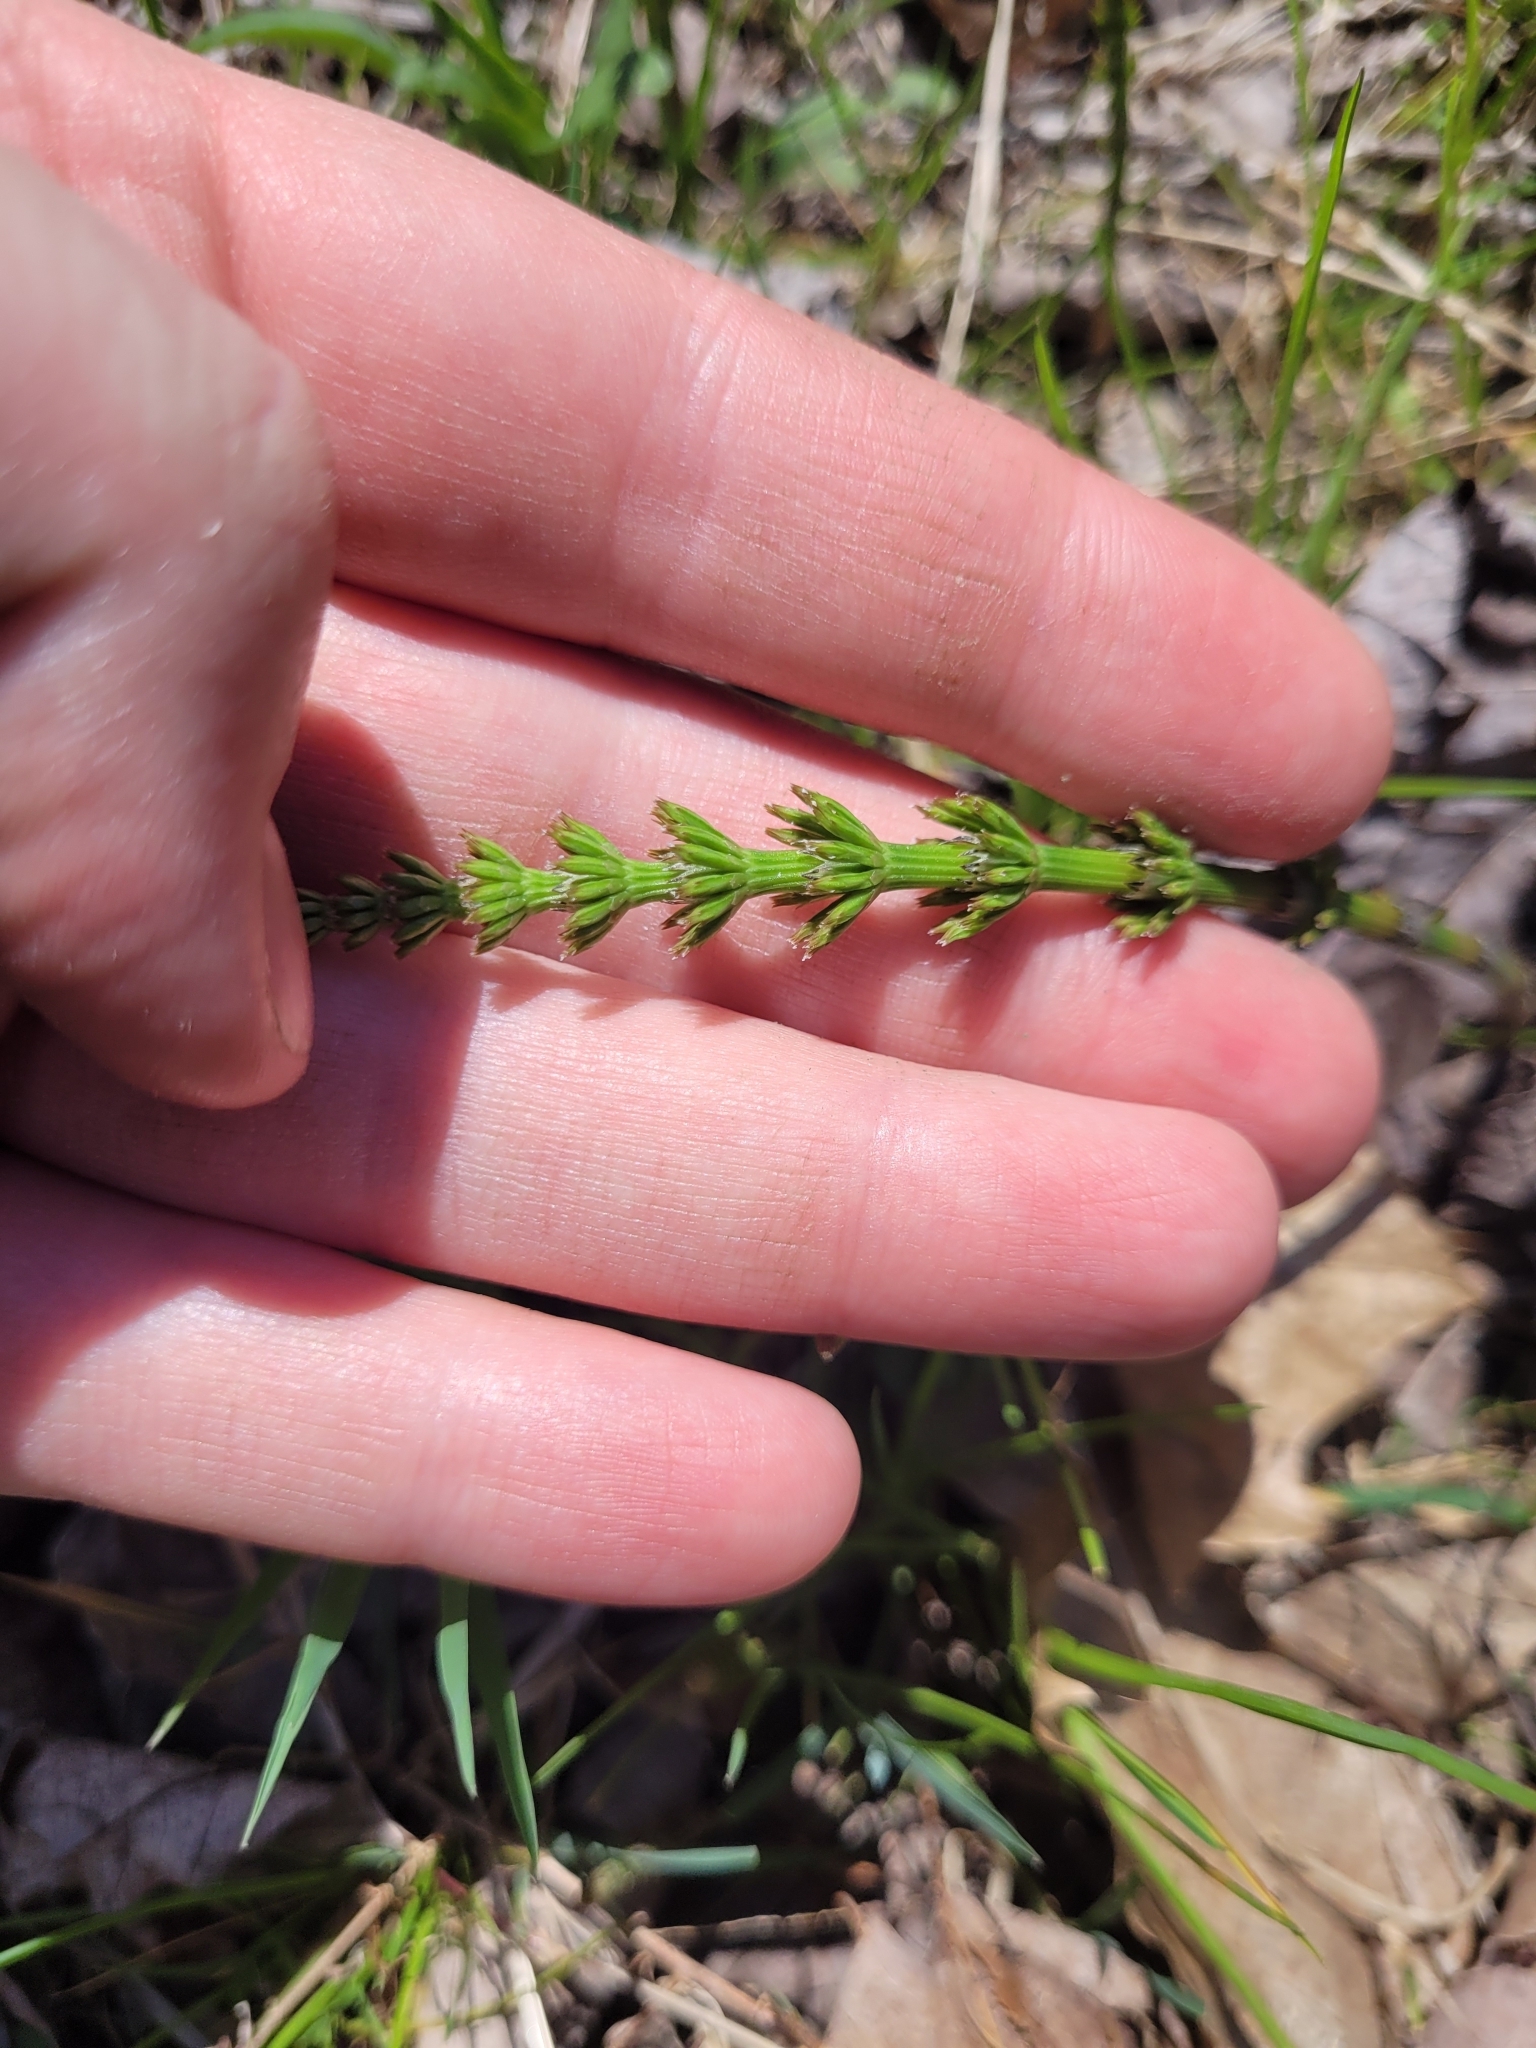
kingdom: Plantae
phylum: Tracheophyta
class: Polypodiopsida
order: Equisetales
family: Equisetaceae
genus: Equisetum
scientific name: Equisetum arvense
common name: Field horsetail
